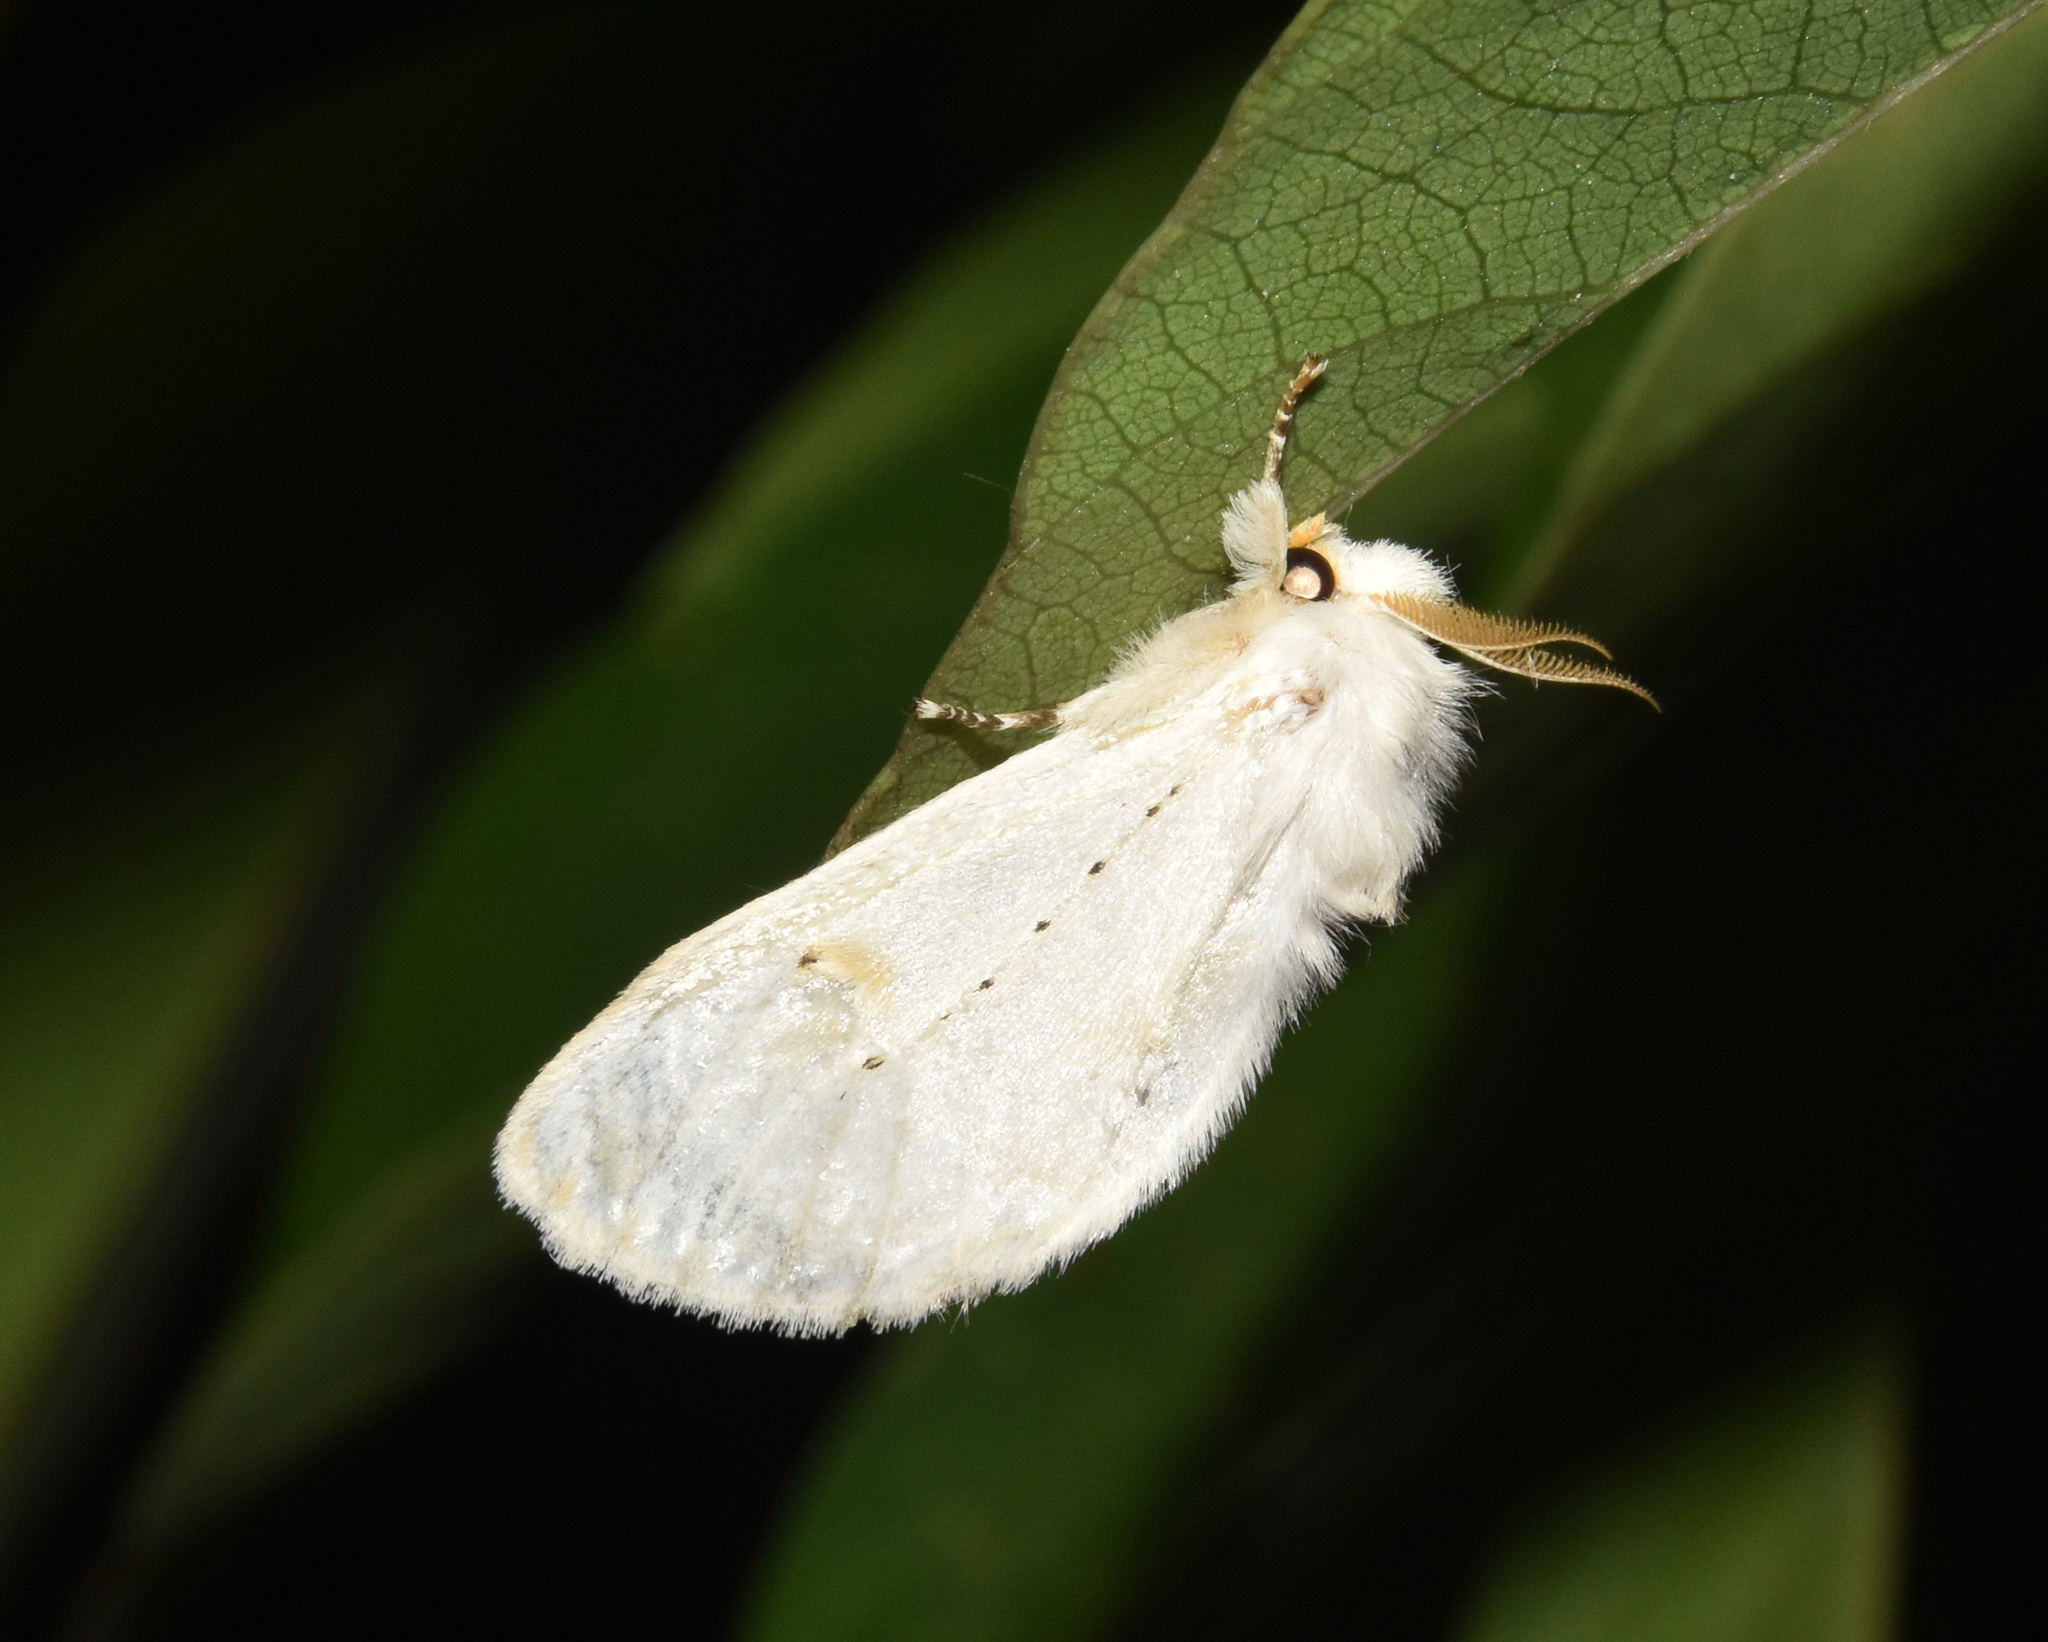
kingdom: Animalia
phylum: Arthropoda
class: Insecta
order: Lepidoptera
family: Erebidae
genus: Naroma
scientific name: Naroma varipes
